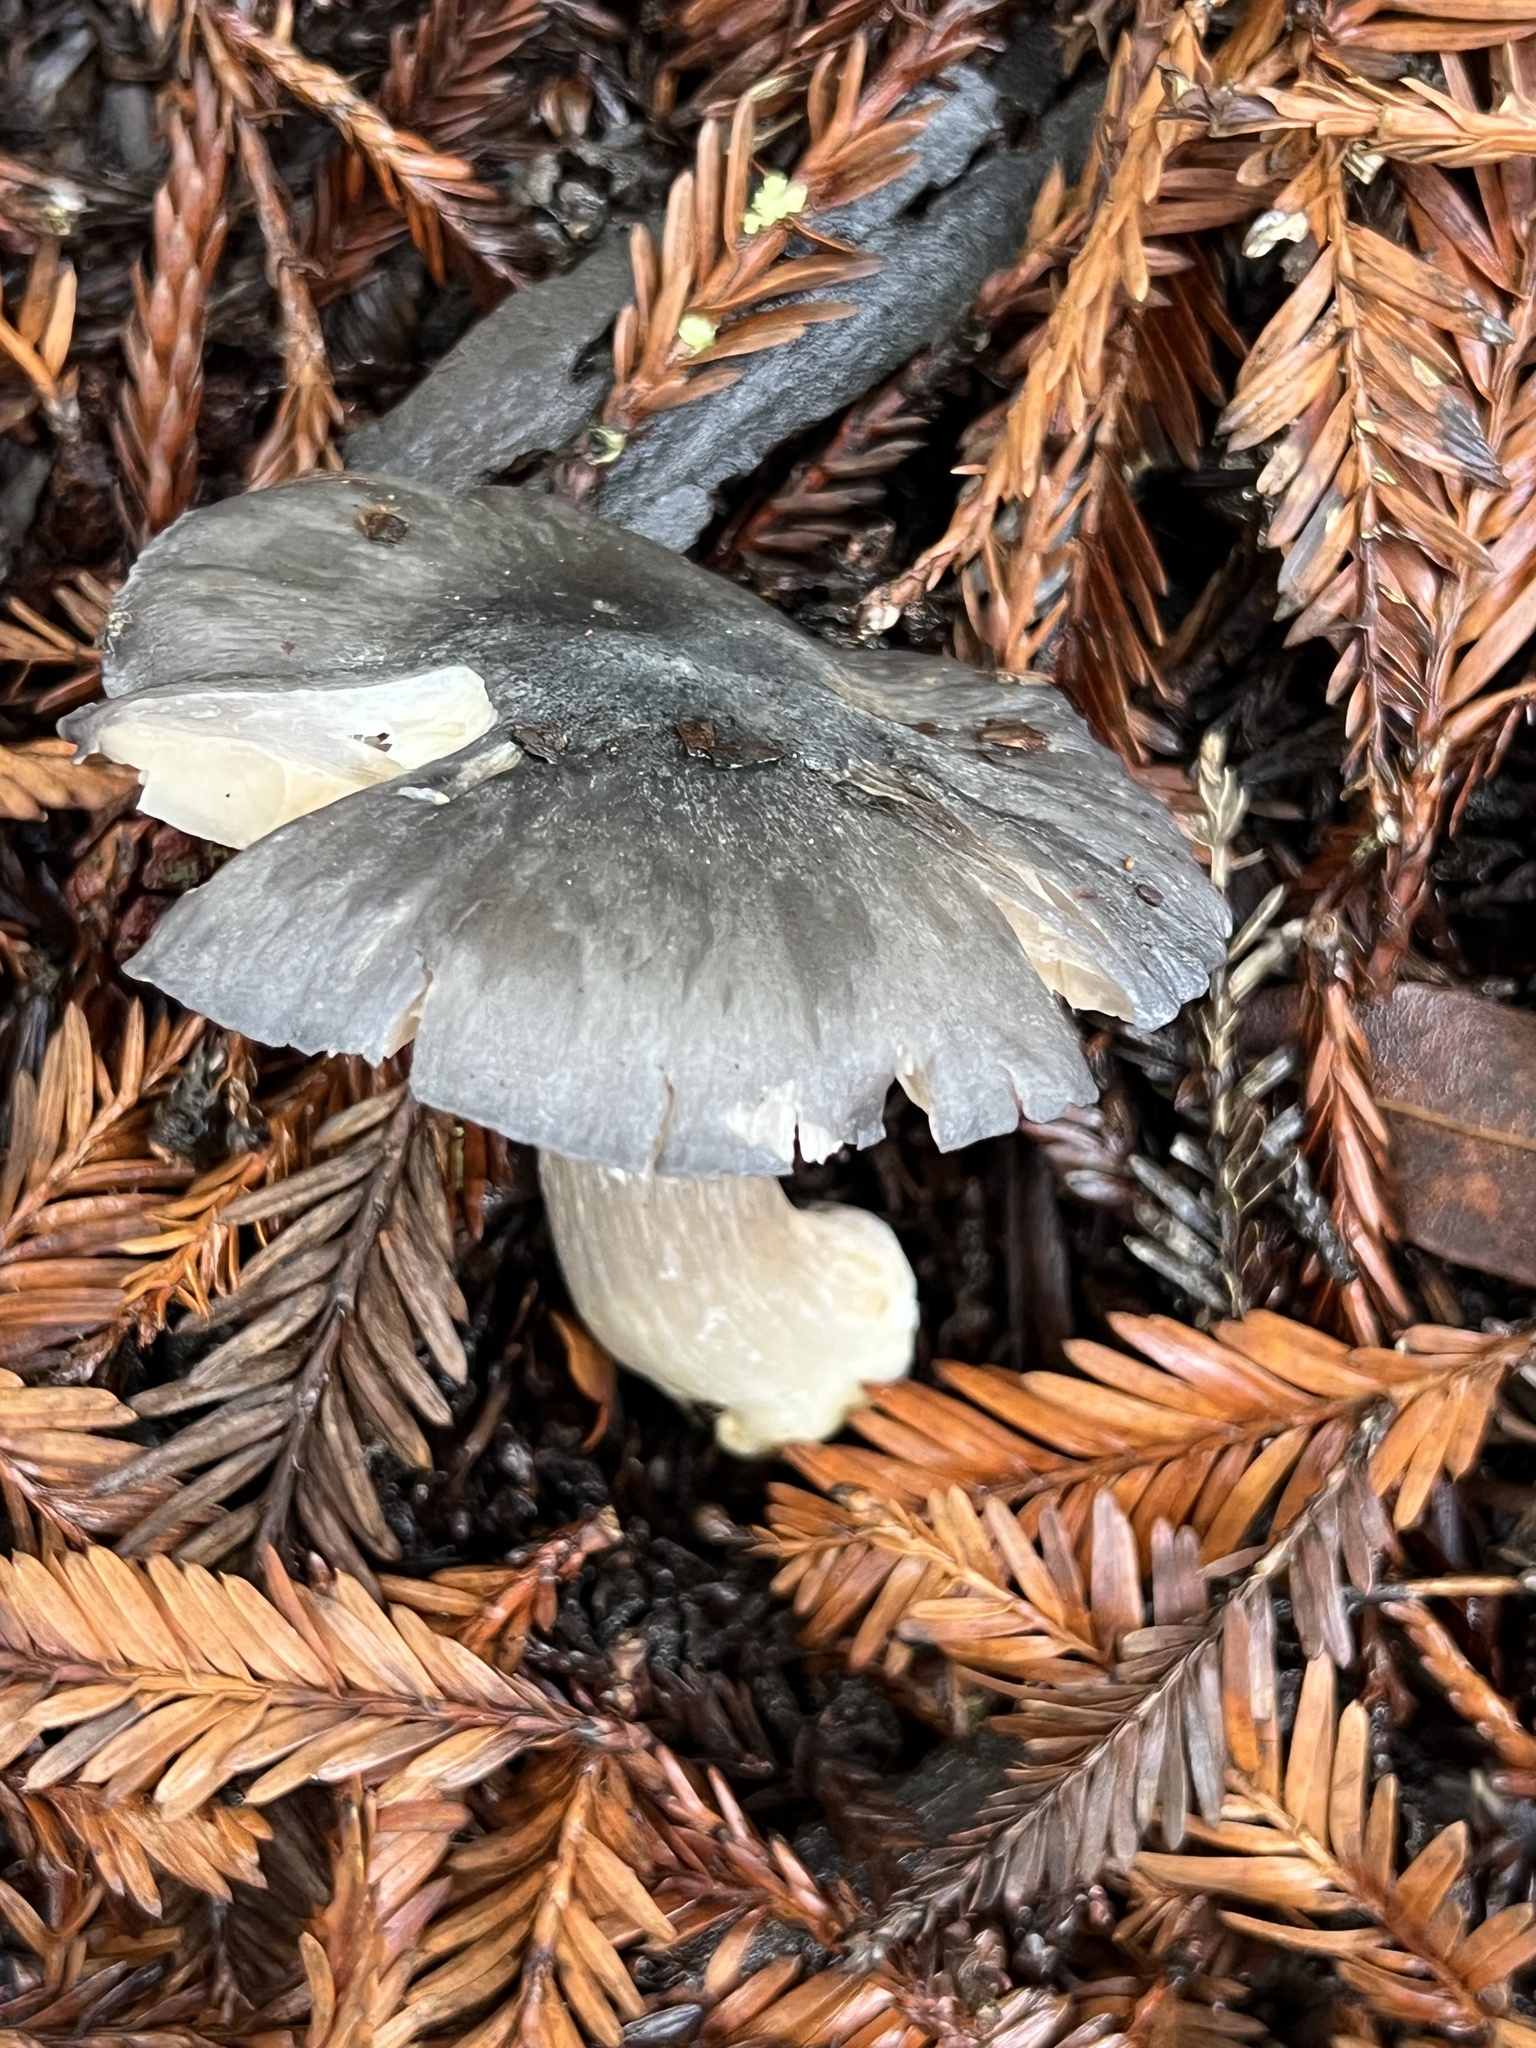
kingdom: Fungi
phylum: Basidiomycota
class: Agaricomycetes
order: Agaricales
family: Entolomataceae
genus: Entoloma
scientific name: Entoloma medianox
